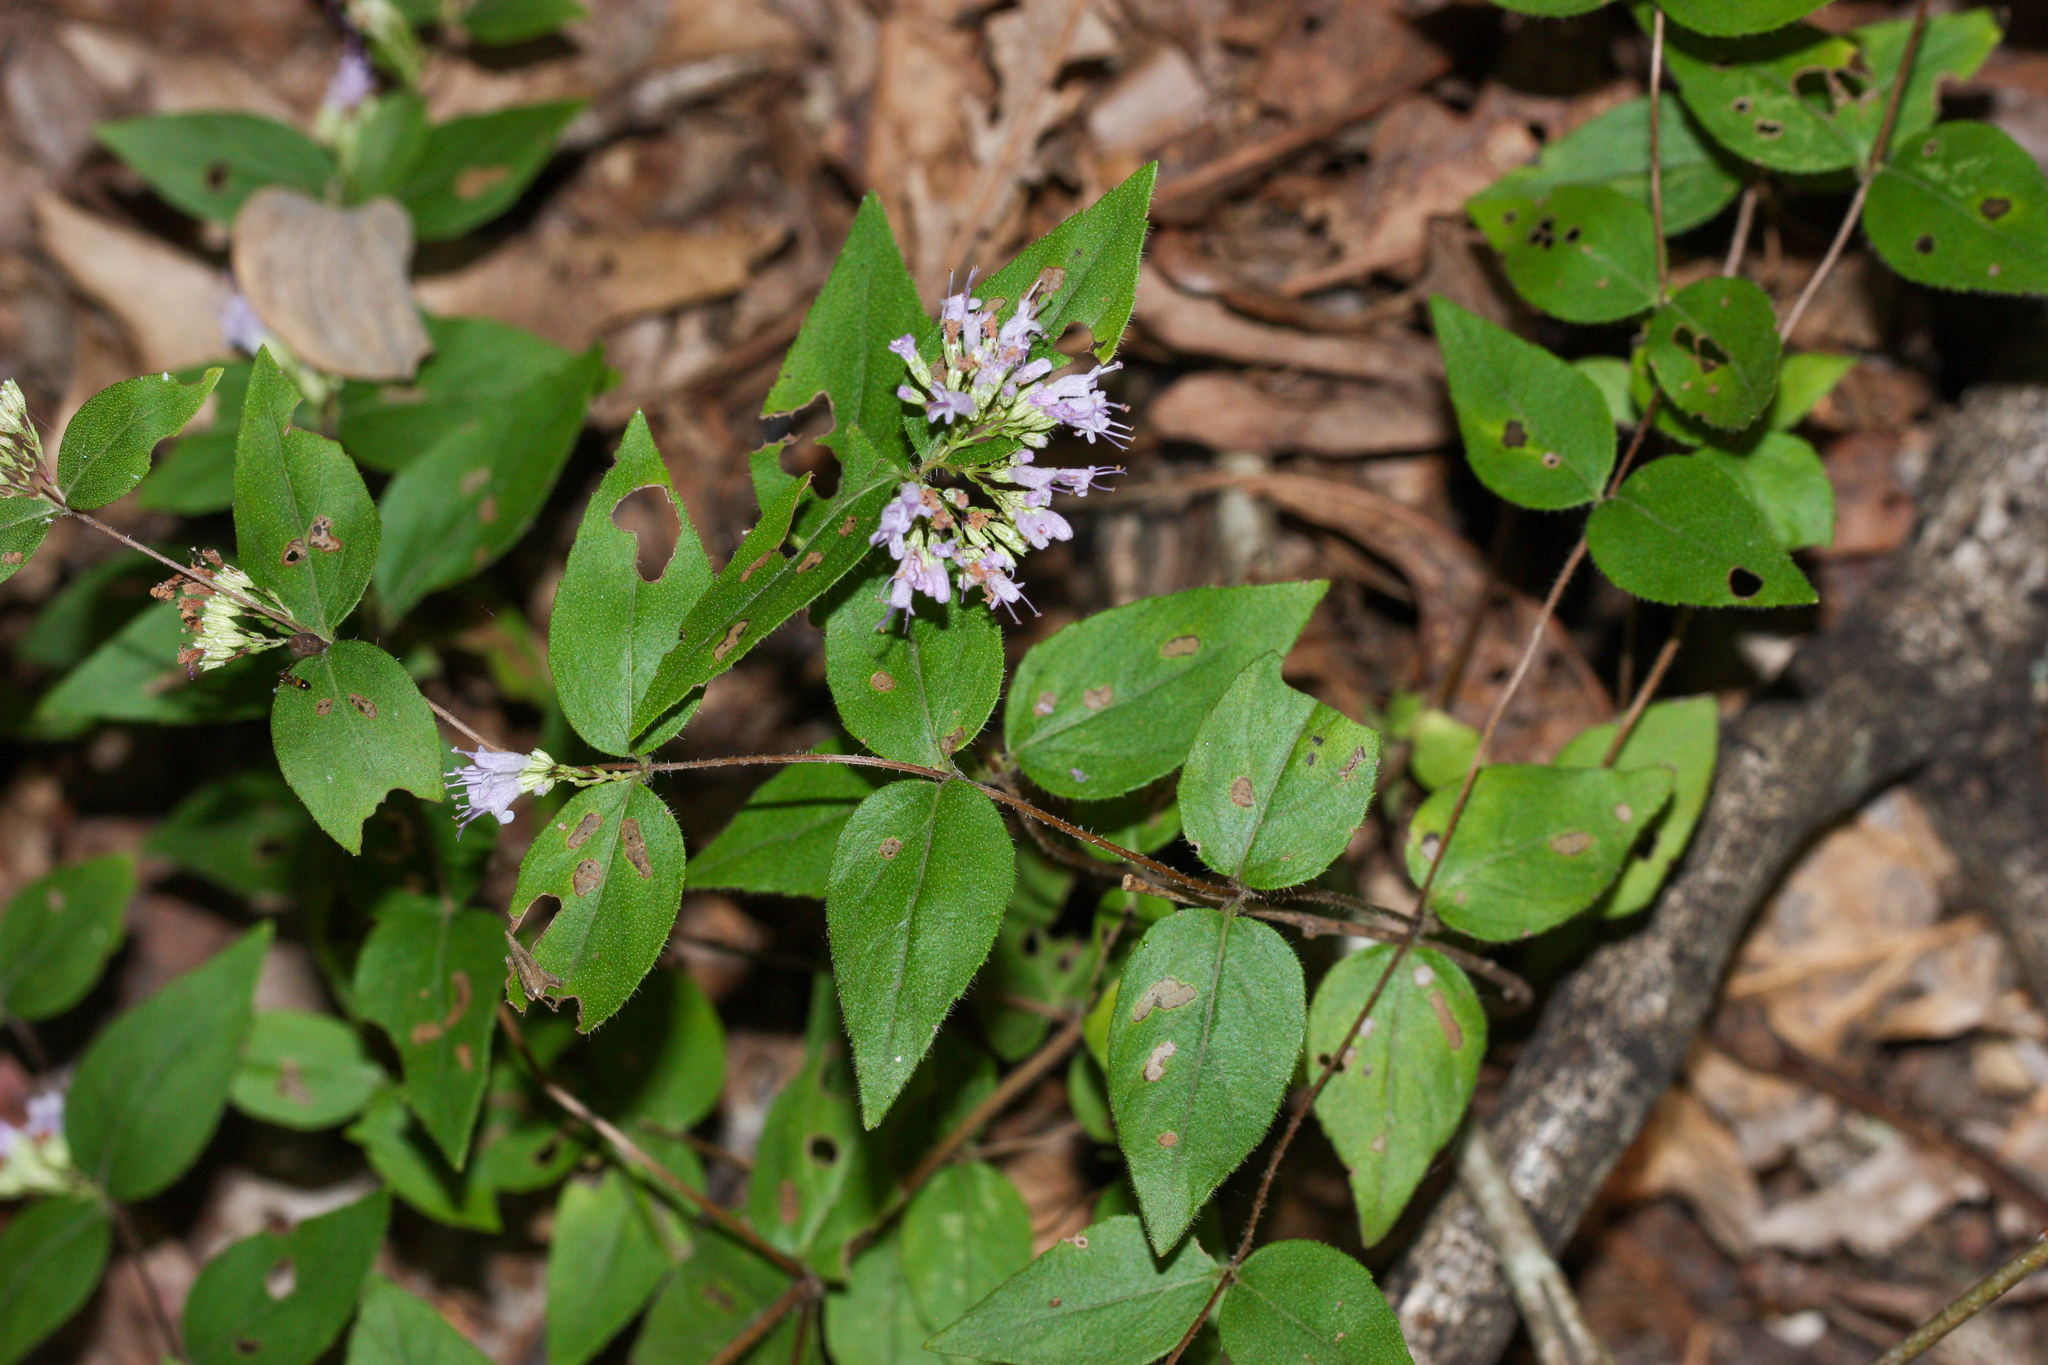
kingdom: Plantae
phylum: Tracheophyta
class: Magnoliopsida
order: Lamiales
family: Lamiaceae
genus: Cunila
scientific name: Cunila origanoides
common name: American dittany
